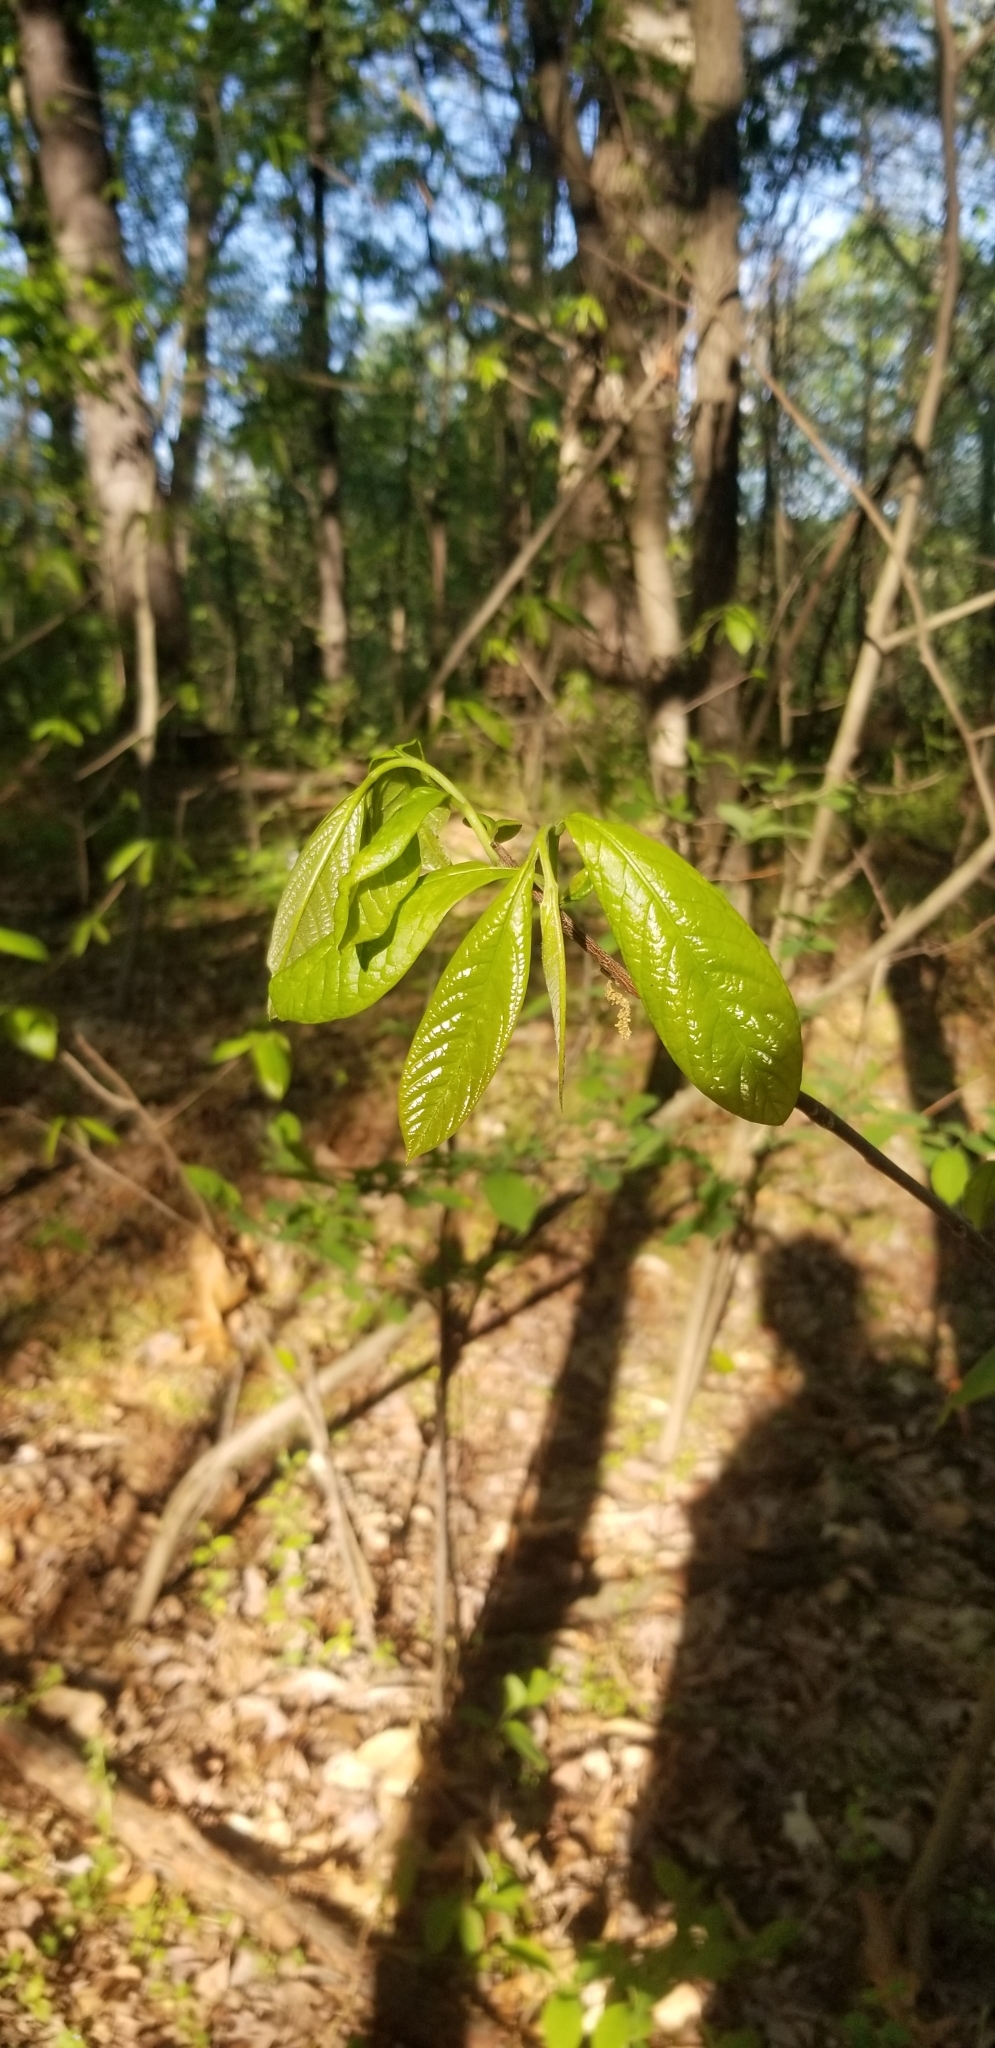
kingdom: Plantae
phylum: Tracheophyta
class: Magnoliopsida
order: Magnoliales
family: Annonaceae
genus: Asimina
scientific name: Asimina triloba
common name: Dog-banana
